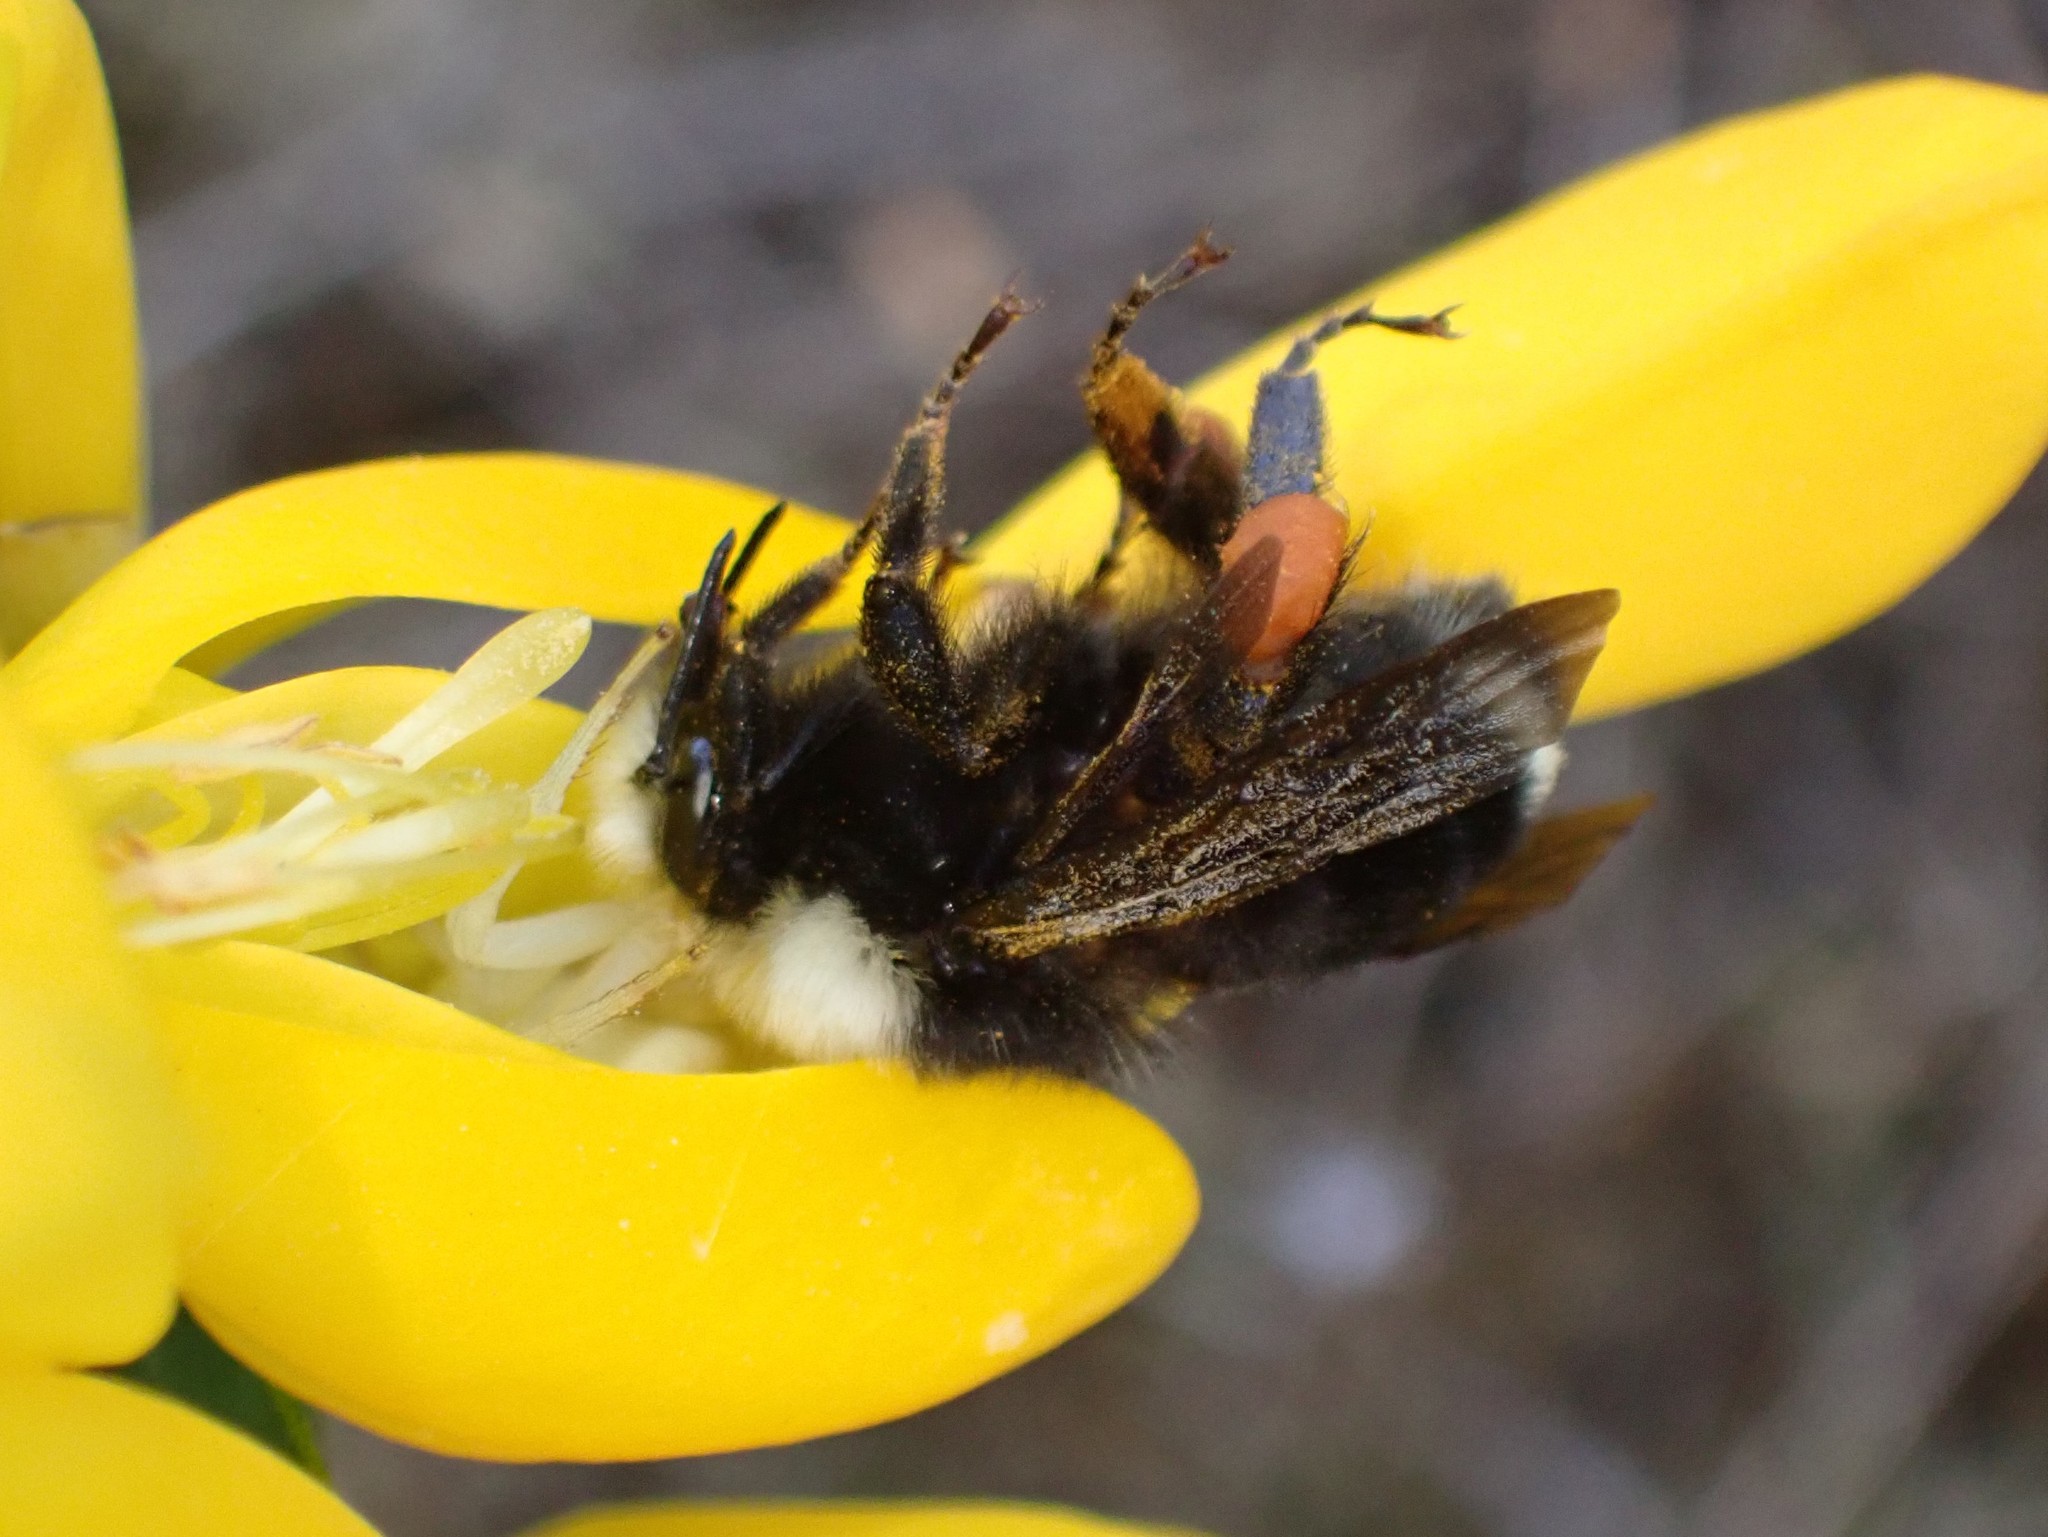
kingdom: Animalia
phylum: Arthropoda
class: Insecta
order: Hymenoptera
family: Apidae
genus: Bombus
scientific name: Bombus caliginosus
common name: Obscure bumble bee
